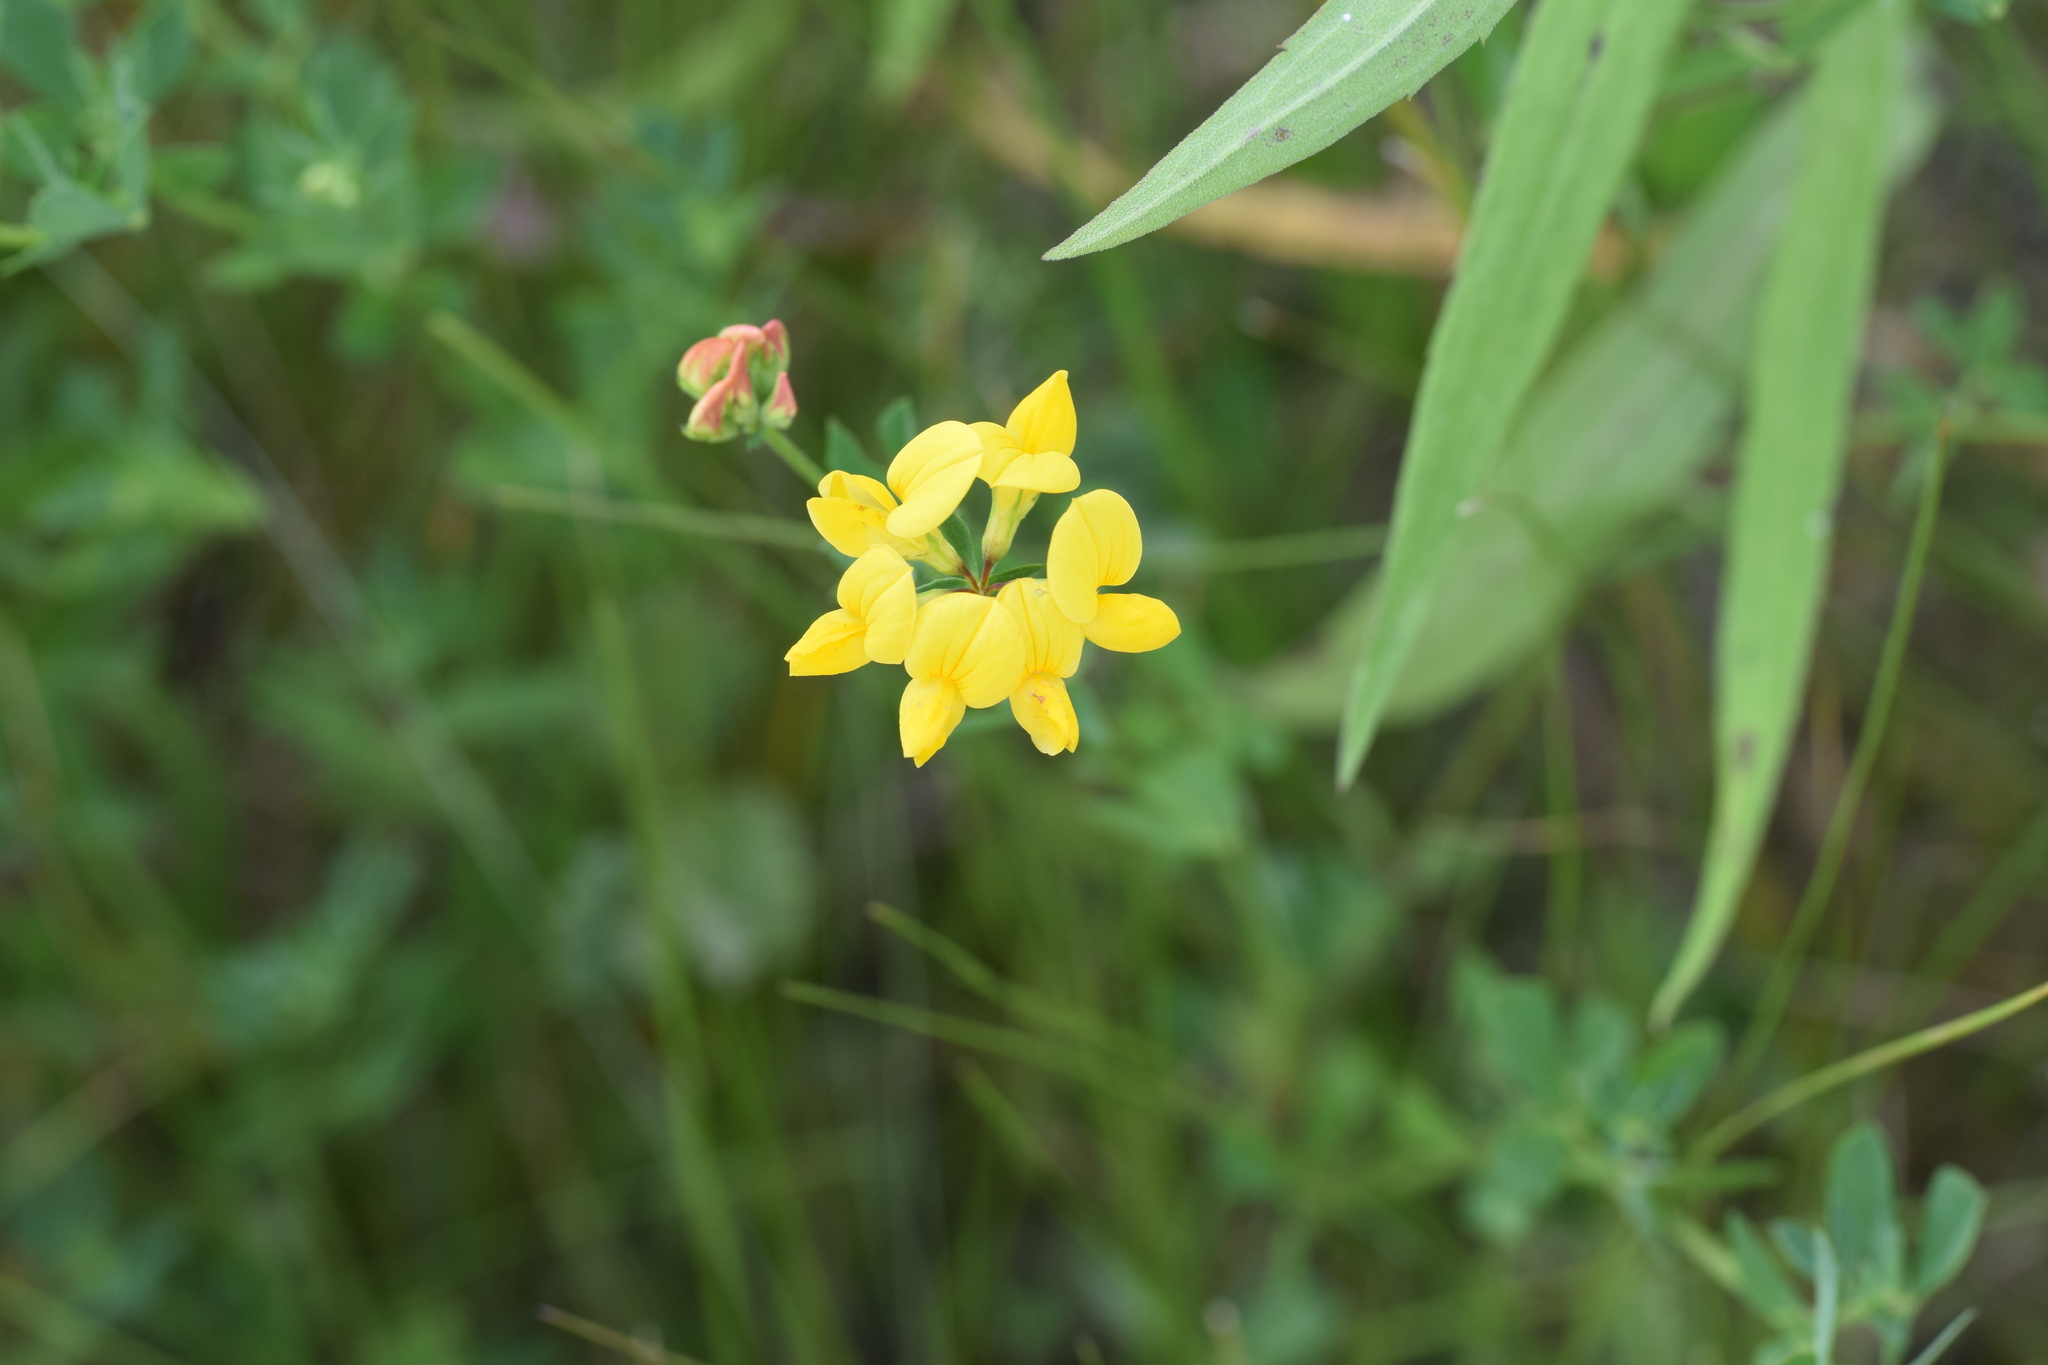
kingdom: Plantae
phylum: Tracheophyta
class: Magnoliopsida
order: Fabales
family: Fabaceae
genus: Lotus
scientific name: Lotus corniculatus
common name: Common bird's-foot-trefoil
